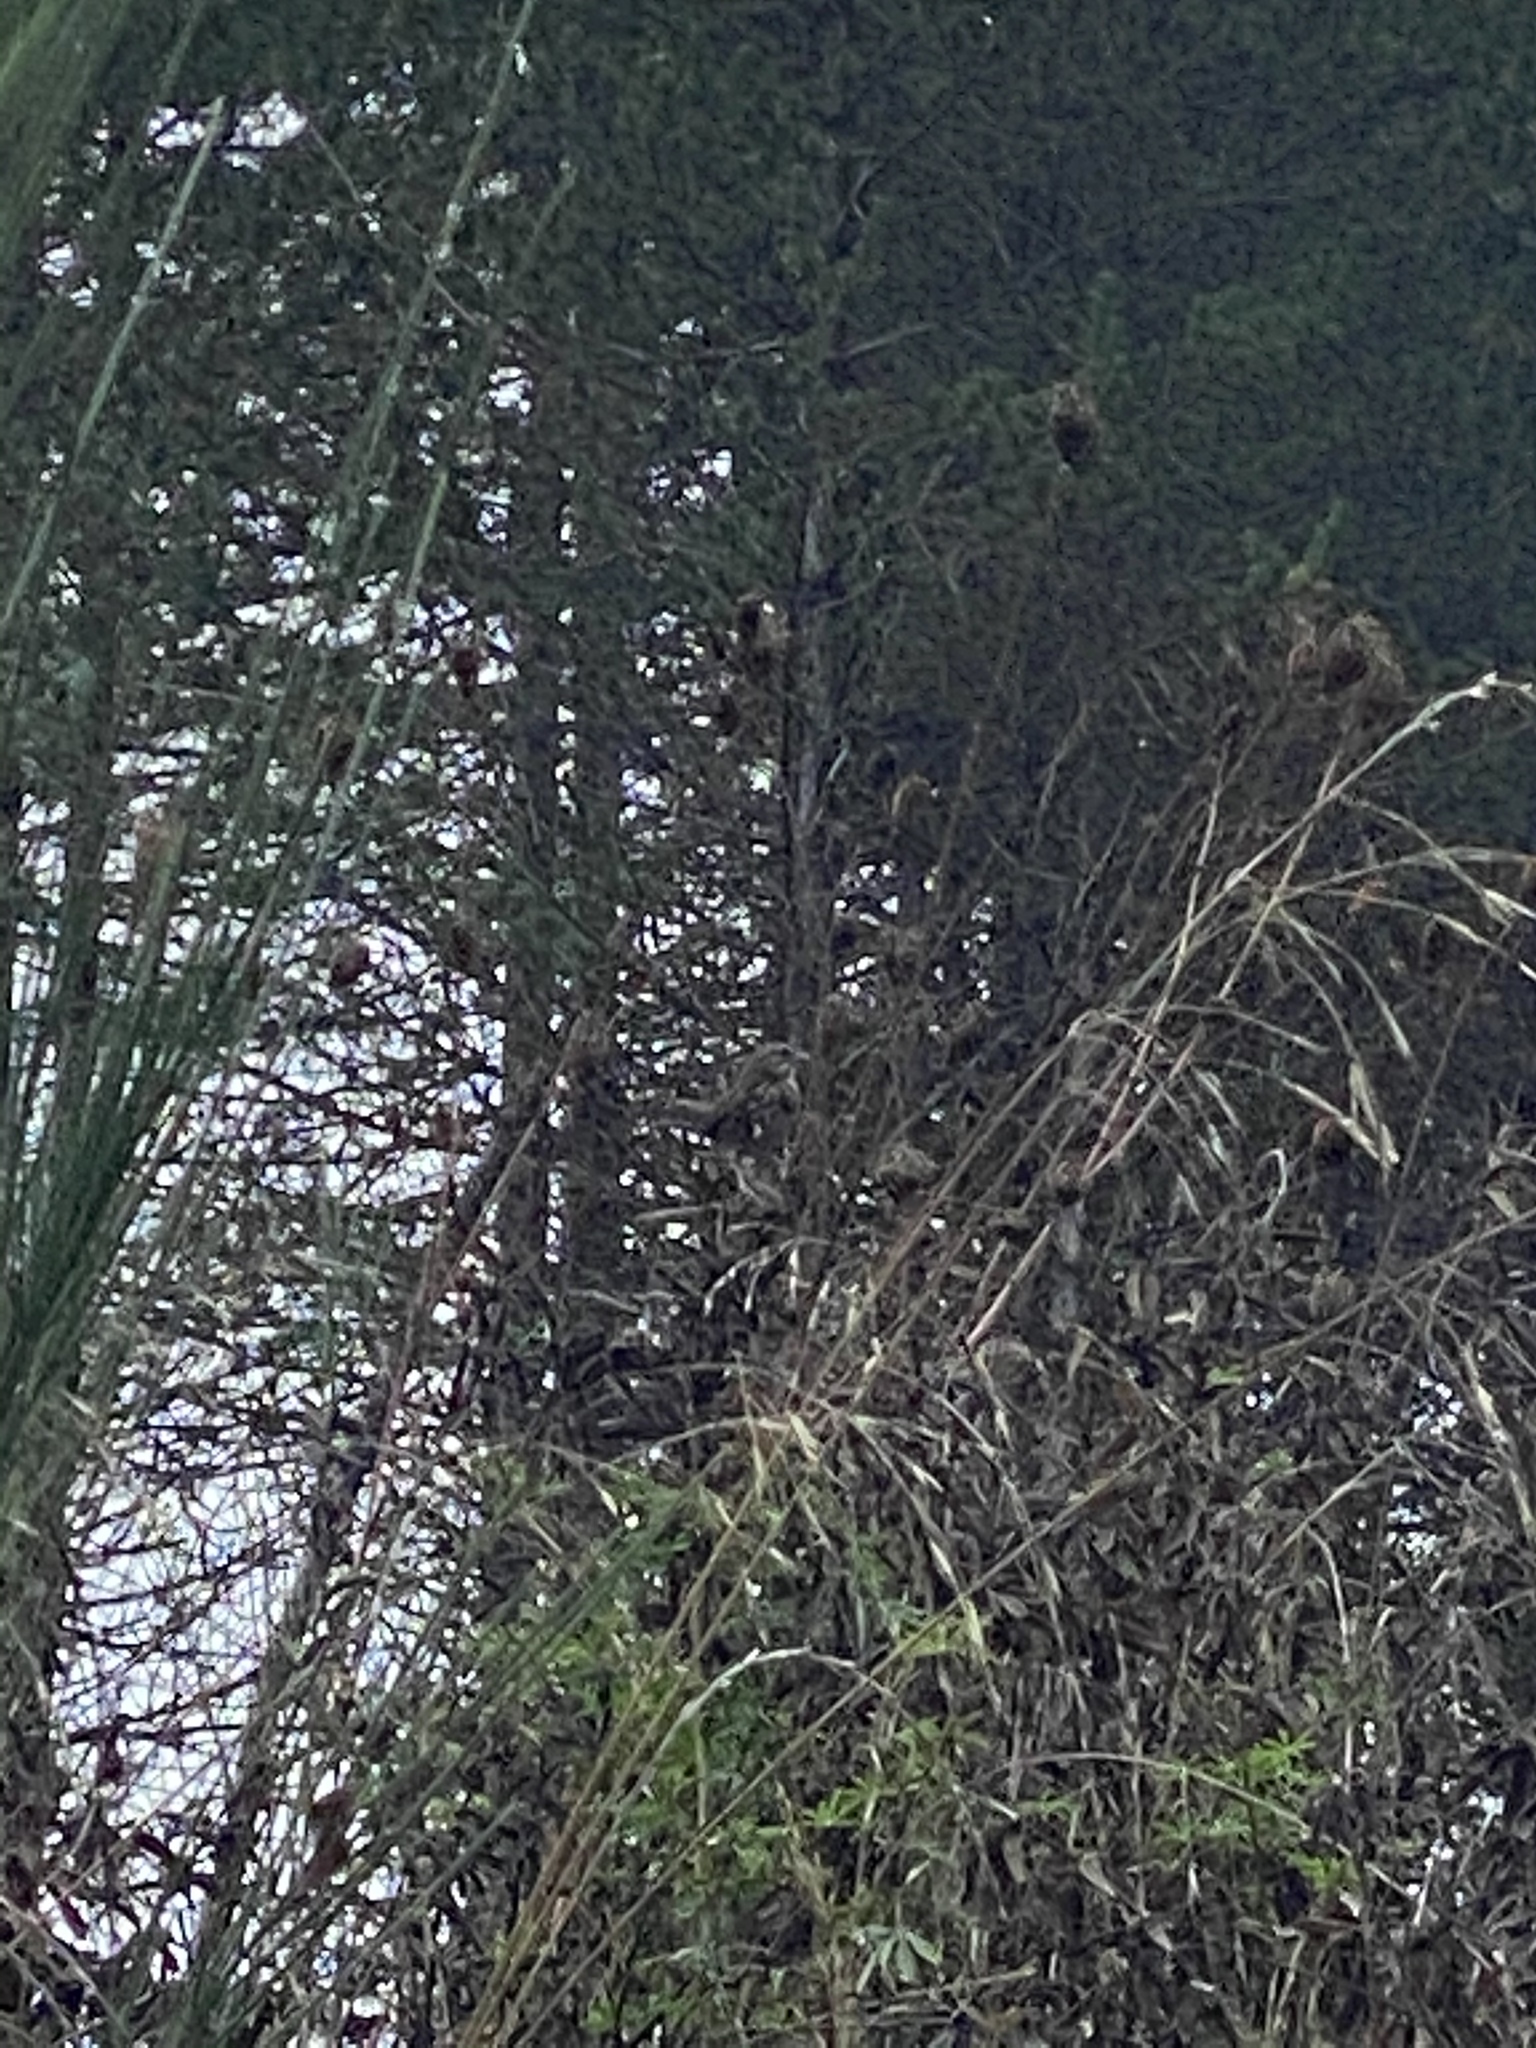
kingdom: Animalia
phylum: Chordata
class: Aves
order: Passeriformes
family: Passerellidae
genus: Melospiza
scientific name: Melospiza melodia
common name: Song sparrow
